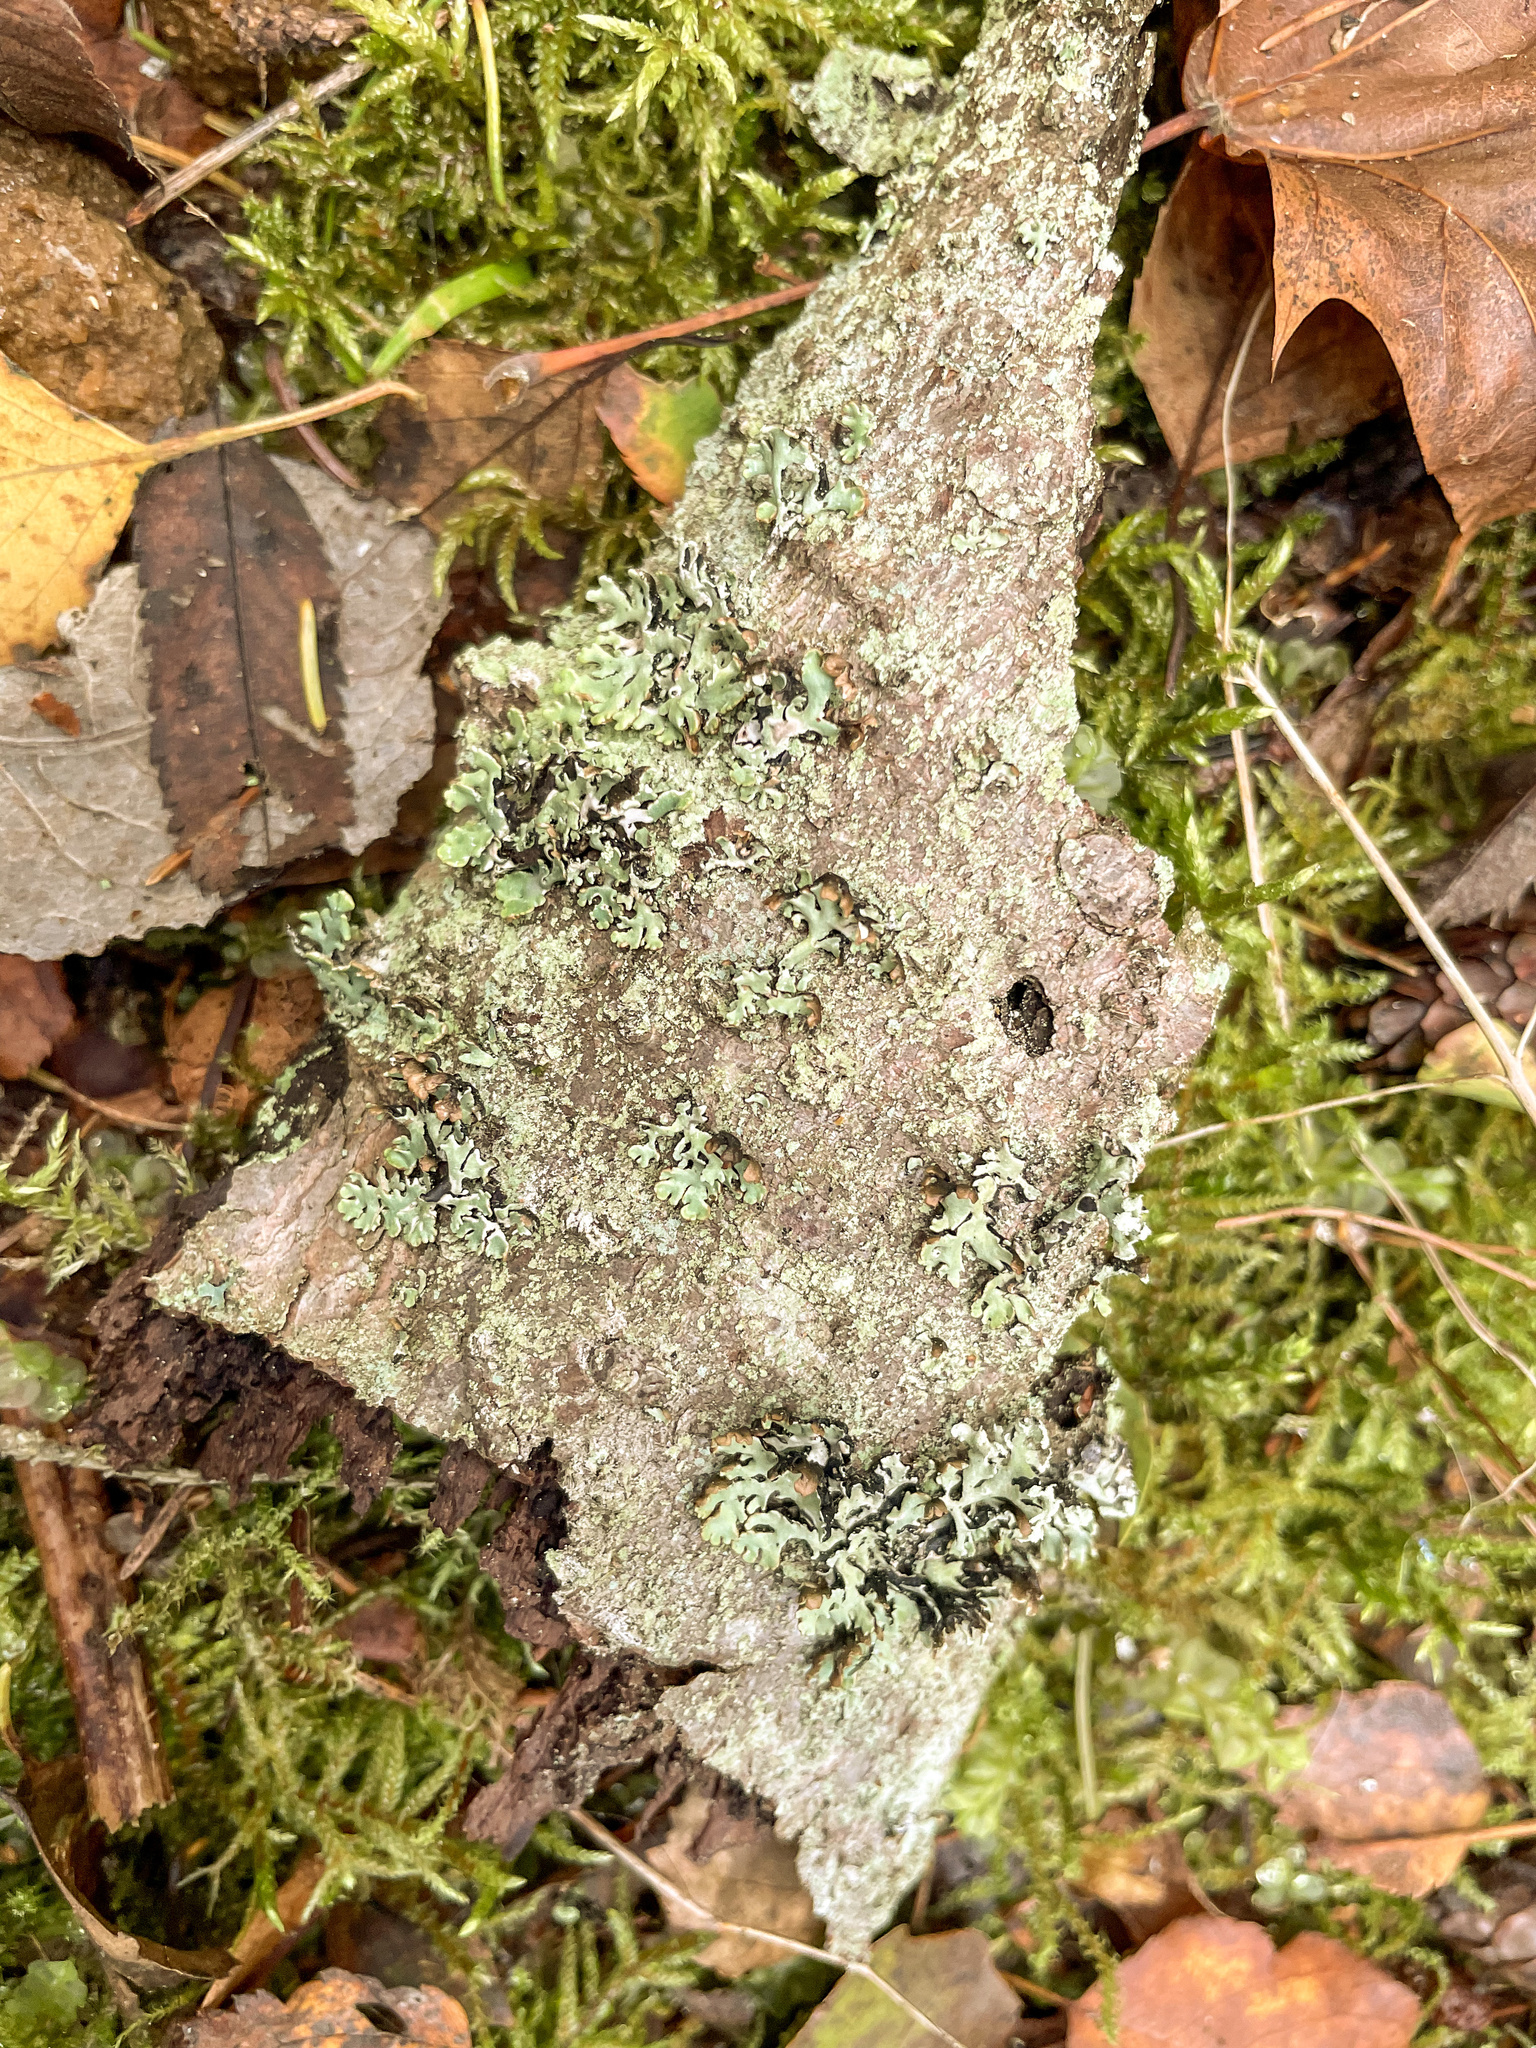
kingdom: Fungi
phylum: Ascomycota
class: Lecanoromycetes
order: Lecanorales
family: Parmeliaceae
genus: Hypogymnia
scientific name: Hypogymnia physodes
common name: Dark crottle
